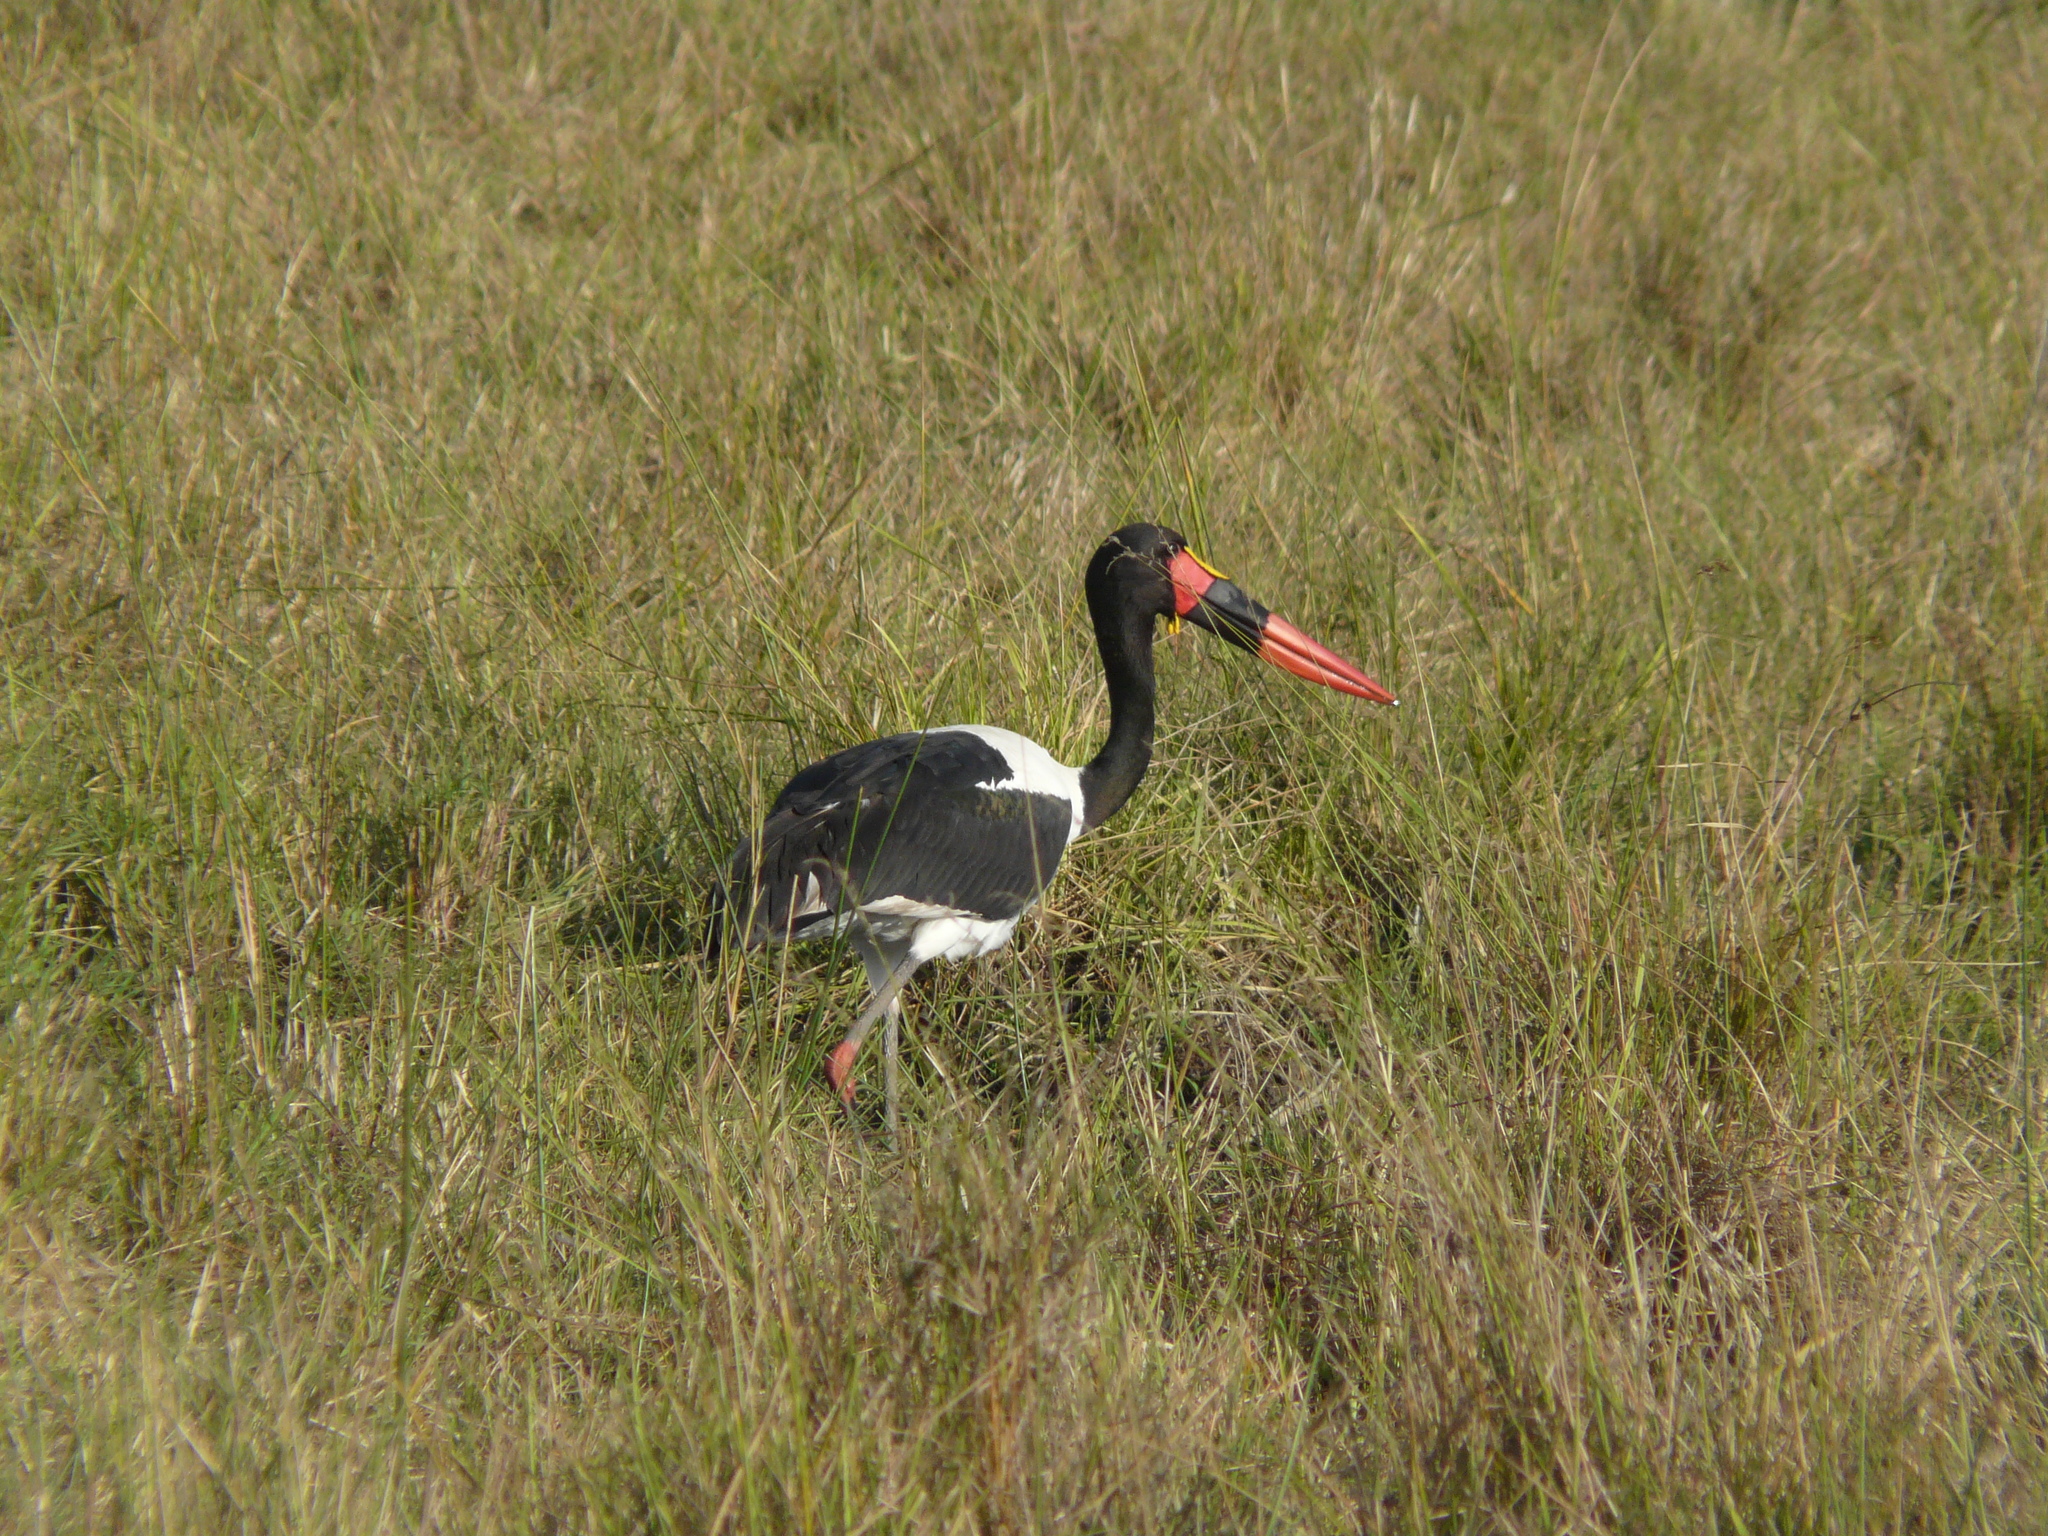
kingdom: Animalia
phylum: Chordata
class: Aves
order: Ciconiiformes
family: Ciconiidae
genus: Ephippiorhynchus
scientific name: Ephippiorhynchus senegalensis
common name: Saddle-billed stork
